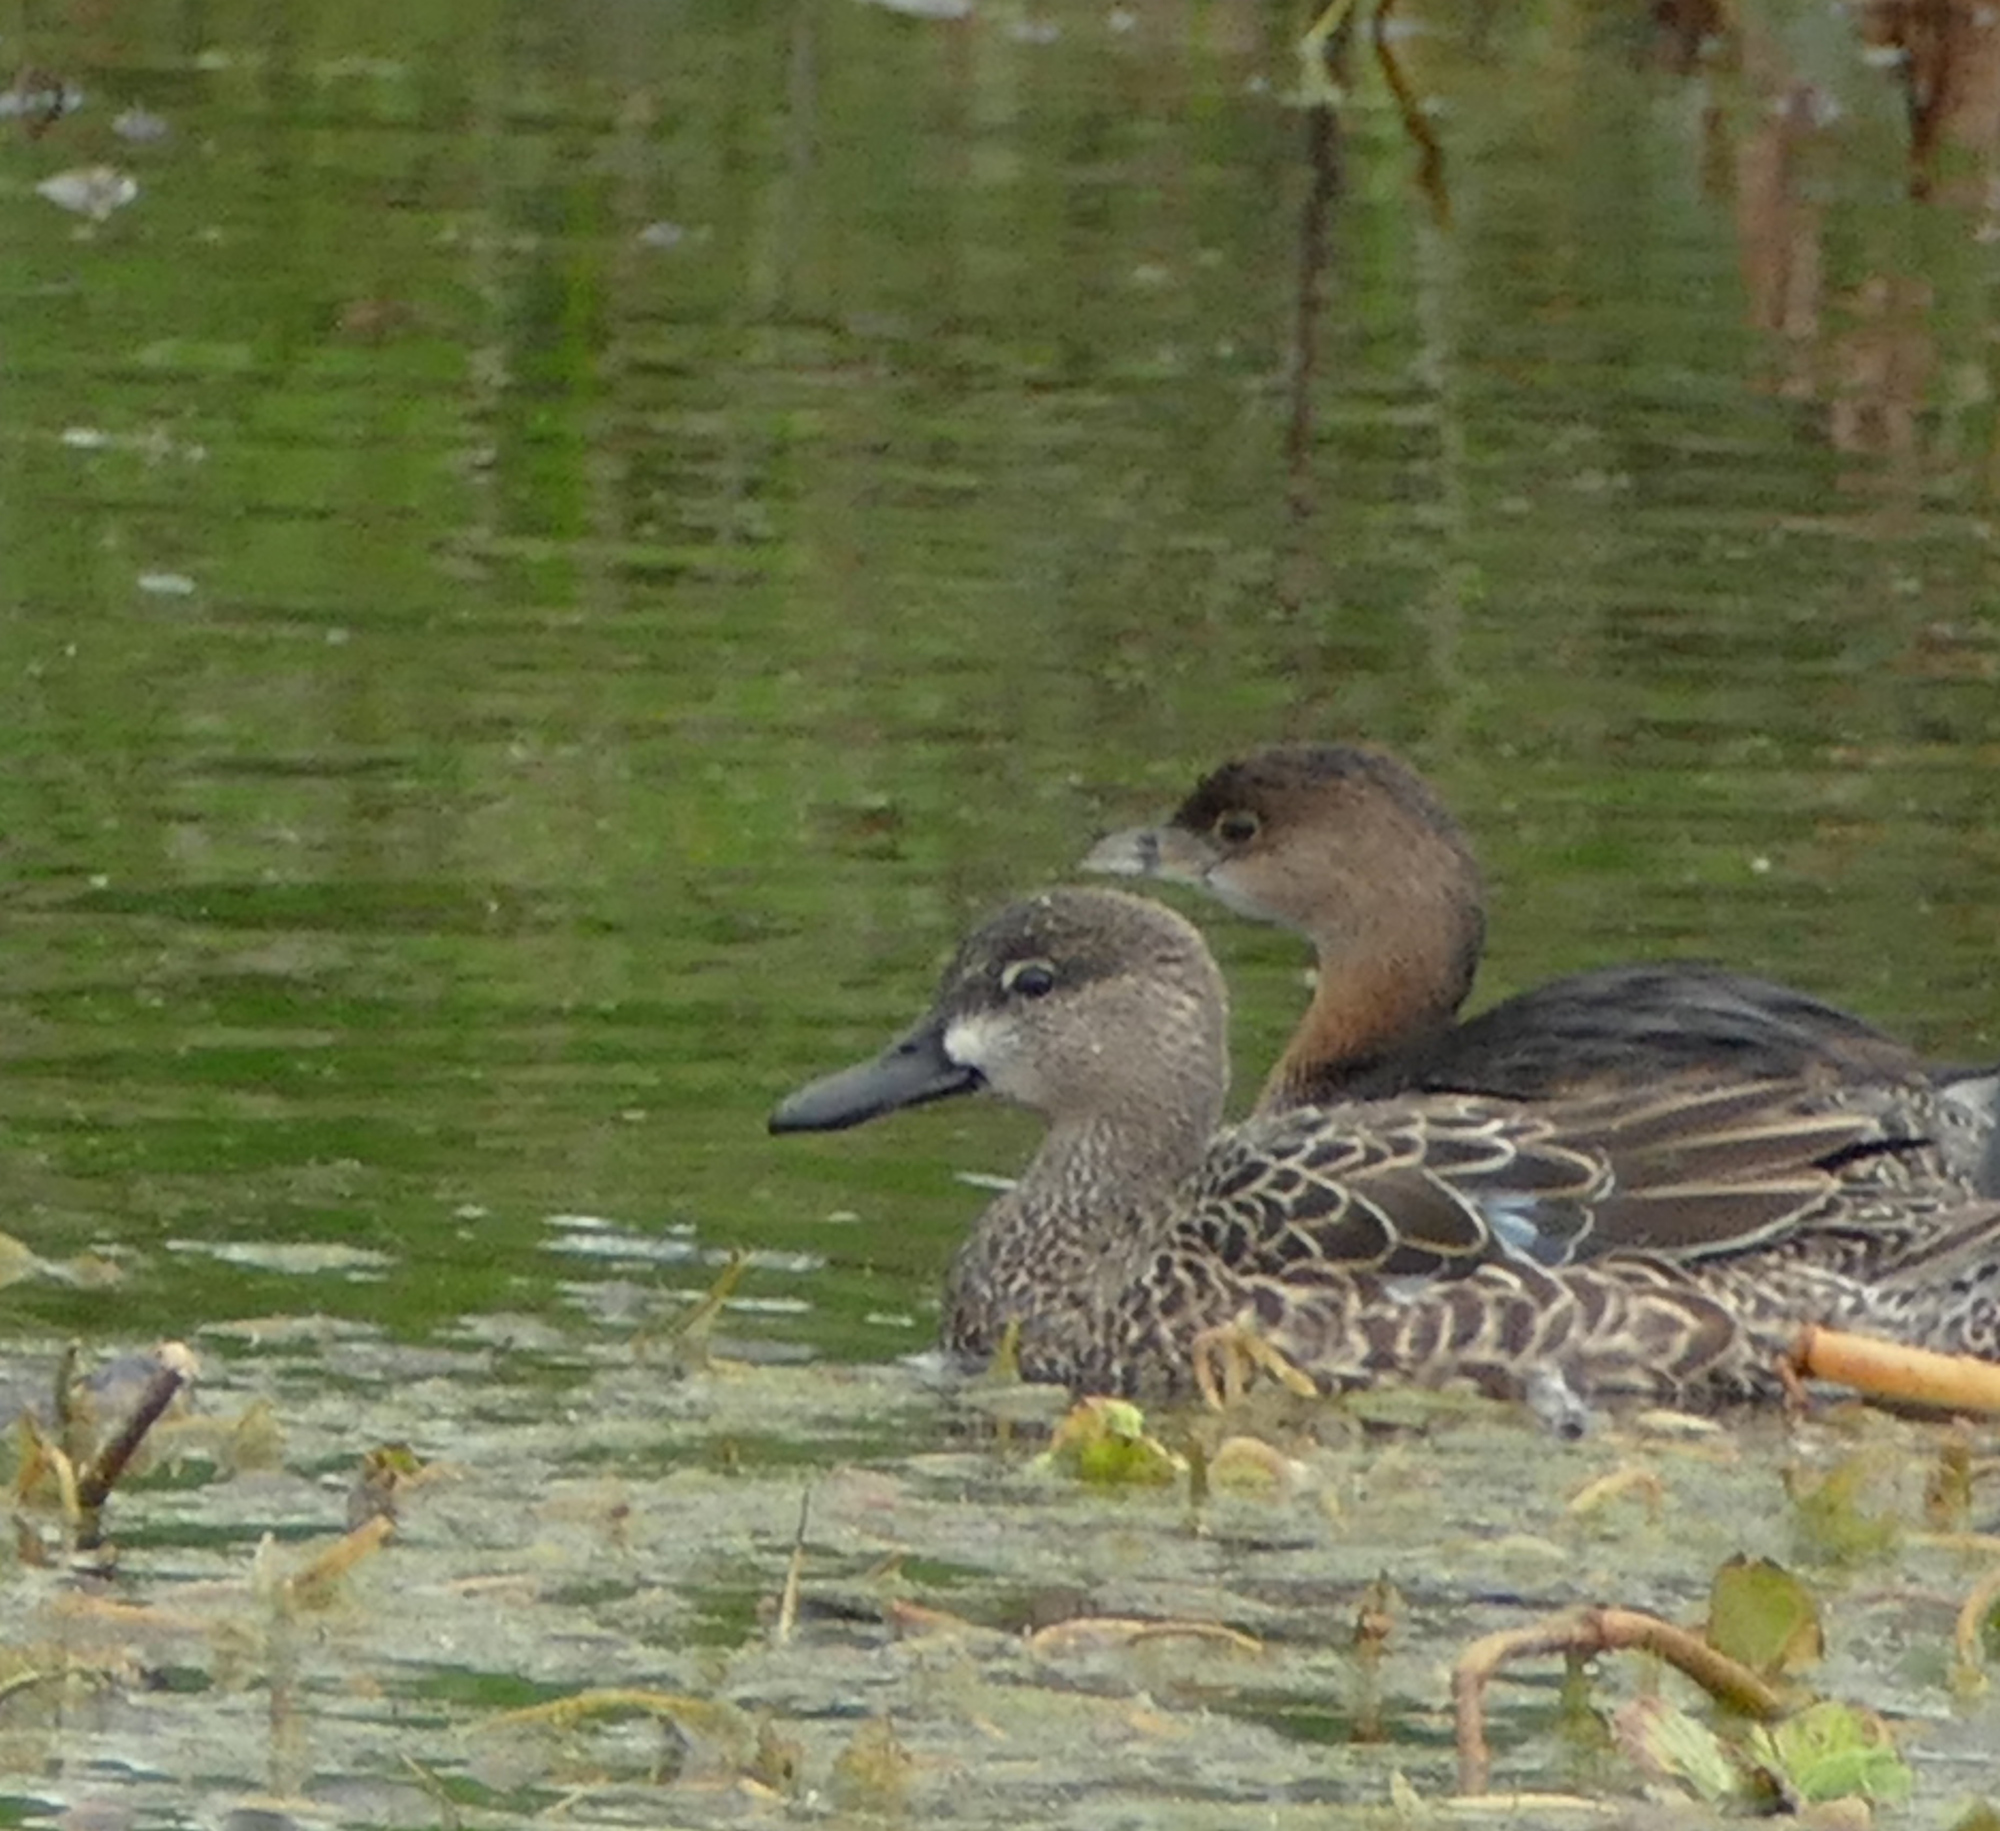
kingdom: Animalia
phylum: Chordata
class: Aves
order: Podicipediformes
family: Podicipedidae
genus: Podilymbus
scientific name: Podilymbus podiceps
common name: Pied-billed grebe
